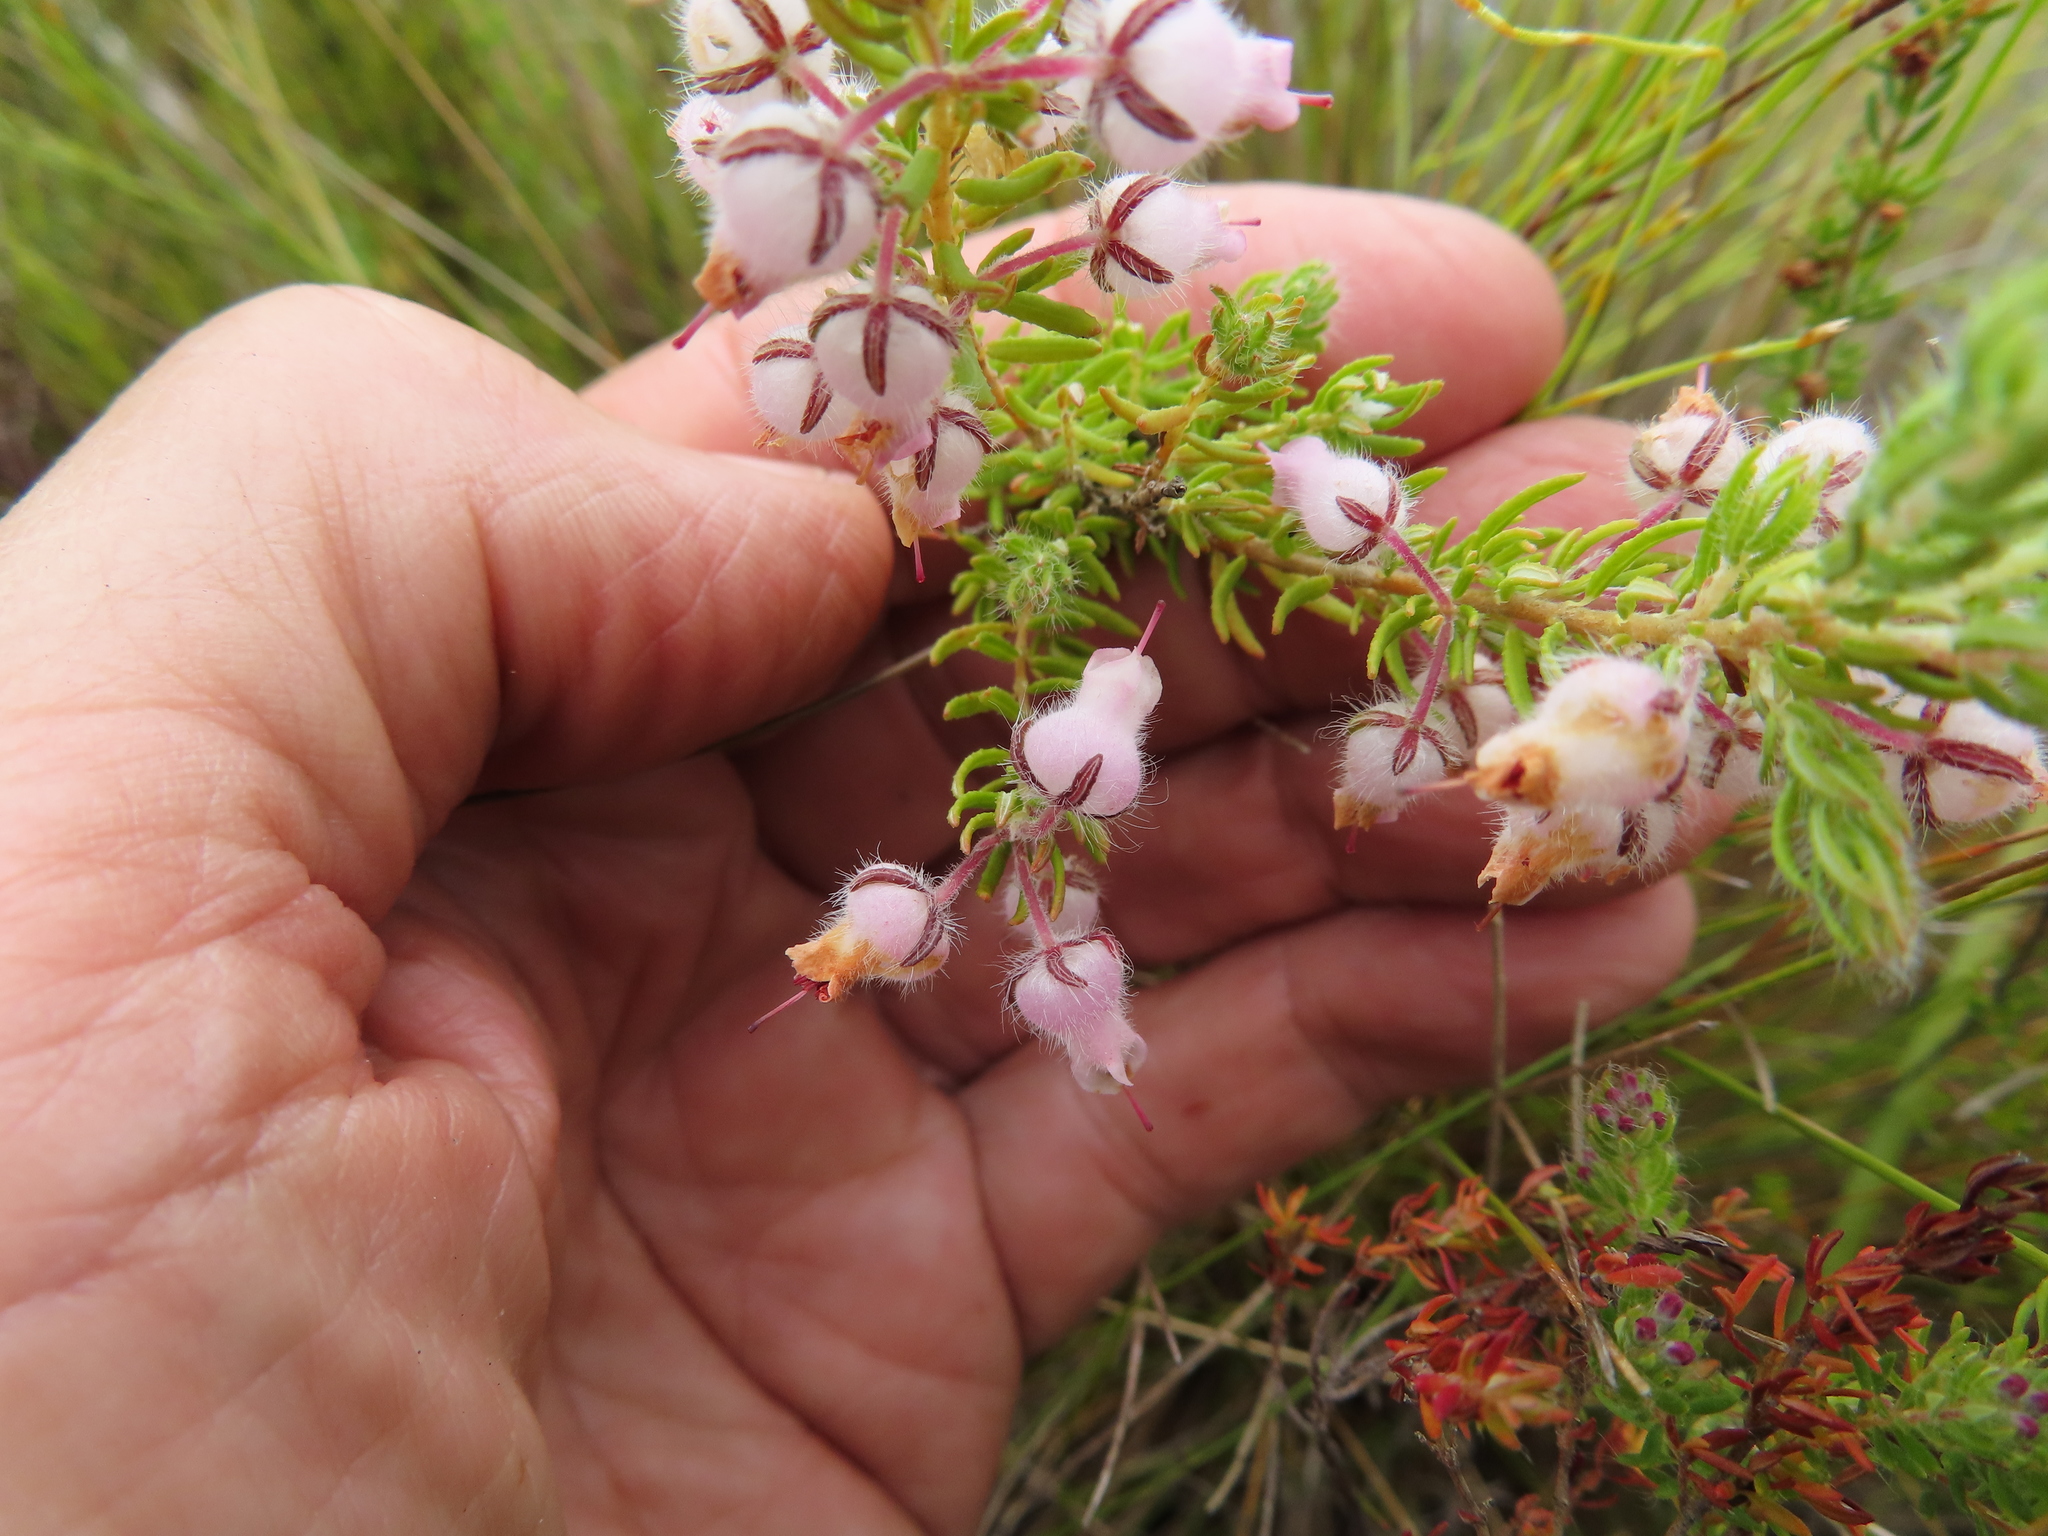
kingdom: Plantae
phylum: Tracheophyta
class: Magnoliopsida
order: Ericales
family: Ericaceae
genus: Erica
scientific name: Erica oxyandra
